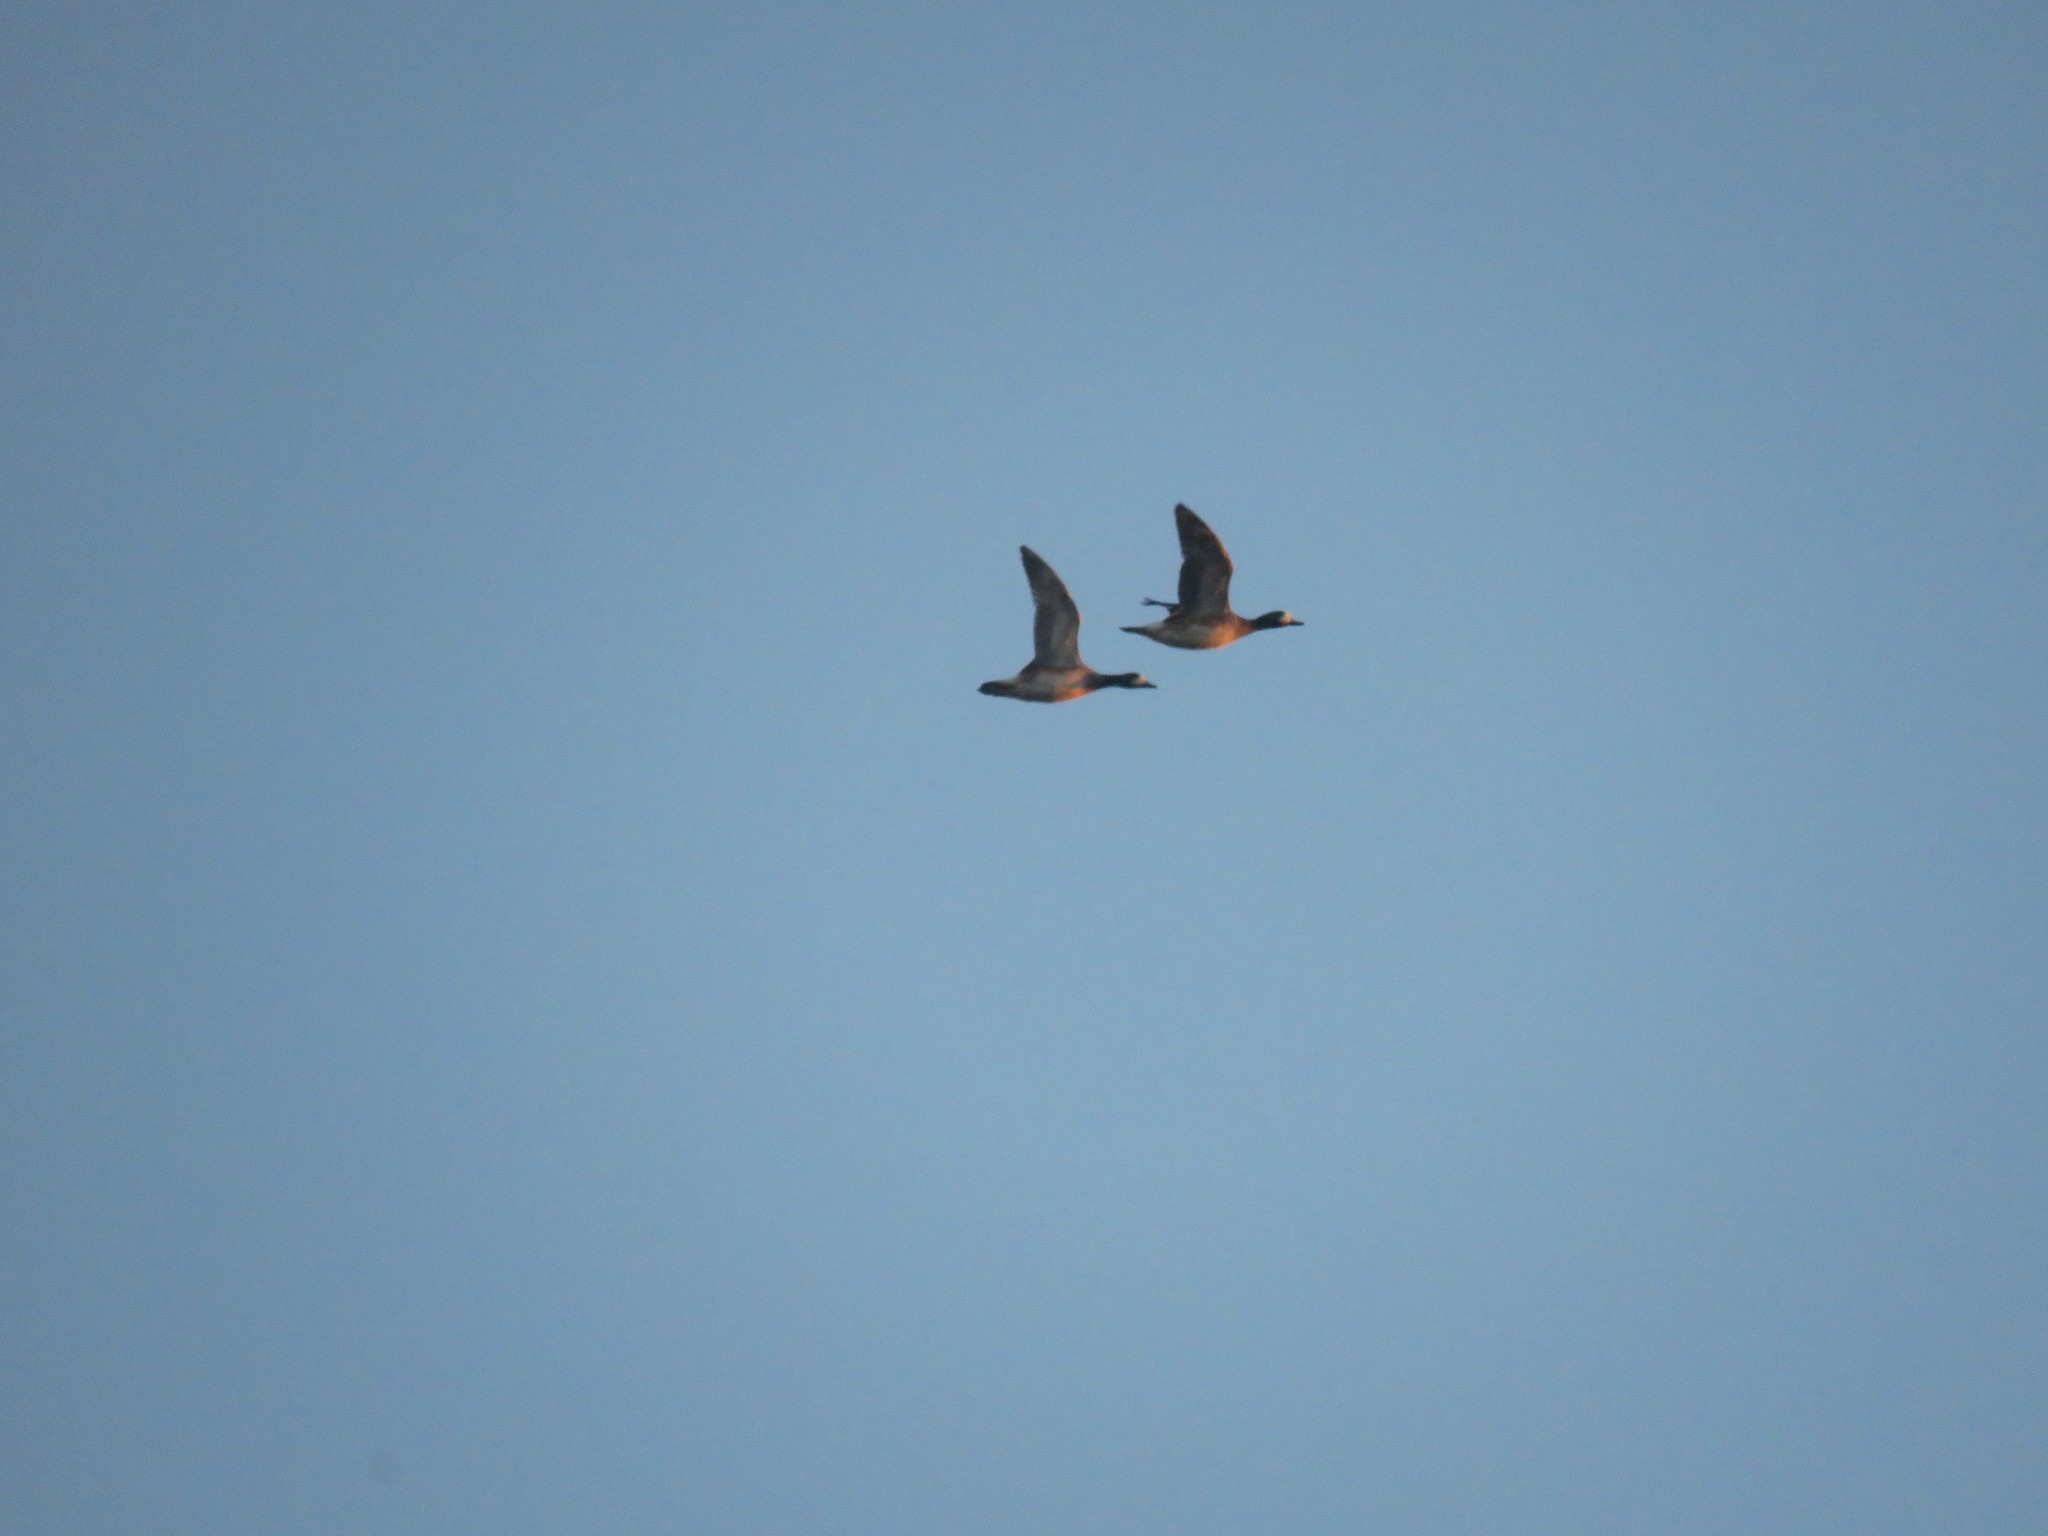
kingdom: Animalia
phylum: Chordata
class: Aves
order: Anseriformes
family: Anatidae
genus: Mareca
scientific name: Mareca sibilatrix
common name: Chiloe wigeon
